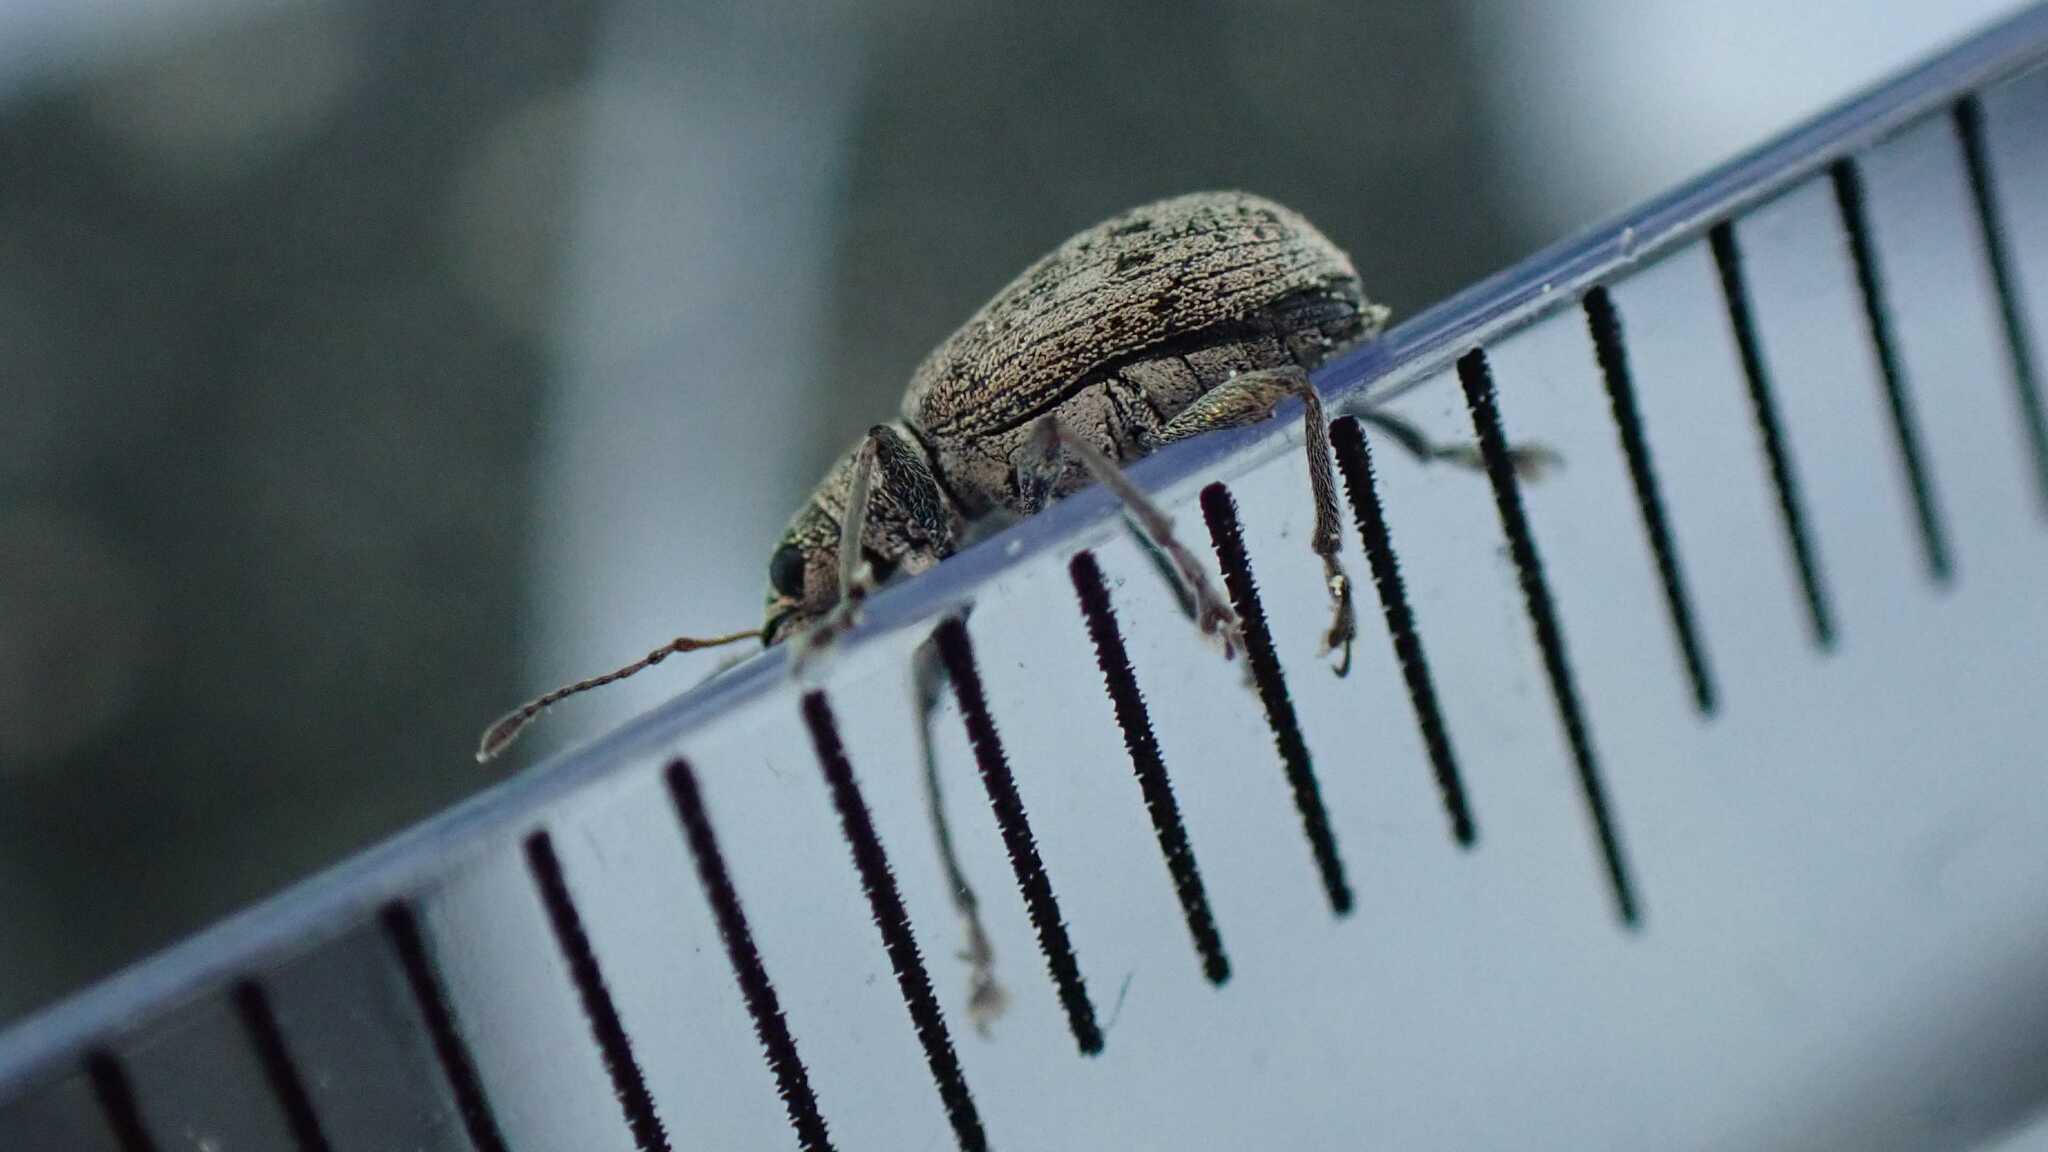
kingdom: Animalia
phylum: Arthropoda
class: Insecta
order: Coleoptera
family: Curculionidae
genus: Polydrusus
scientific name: Polydrusus cervinus
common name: Weevil
